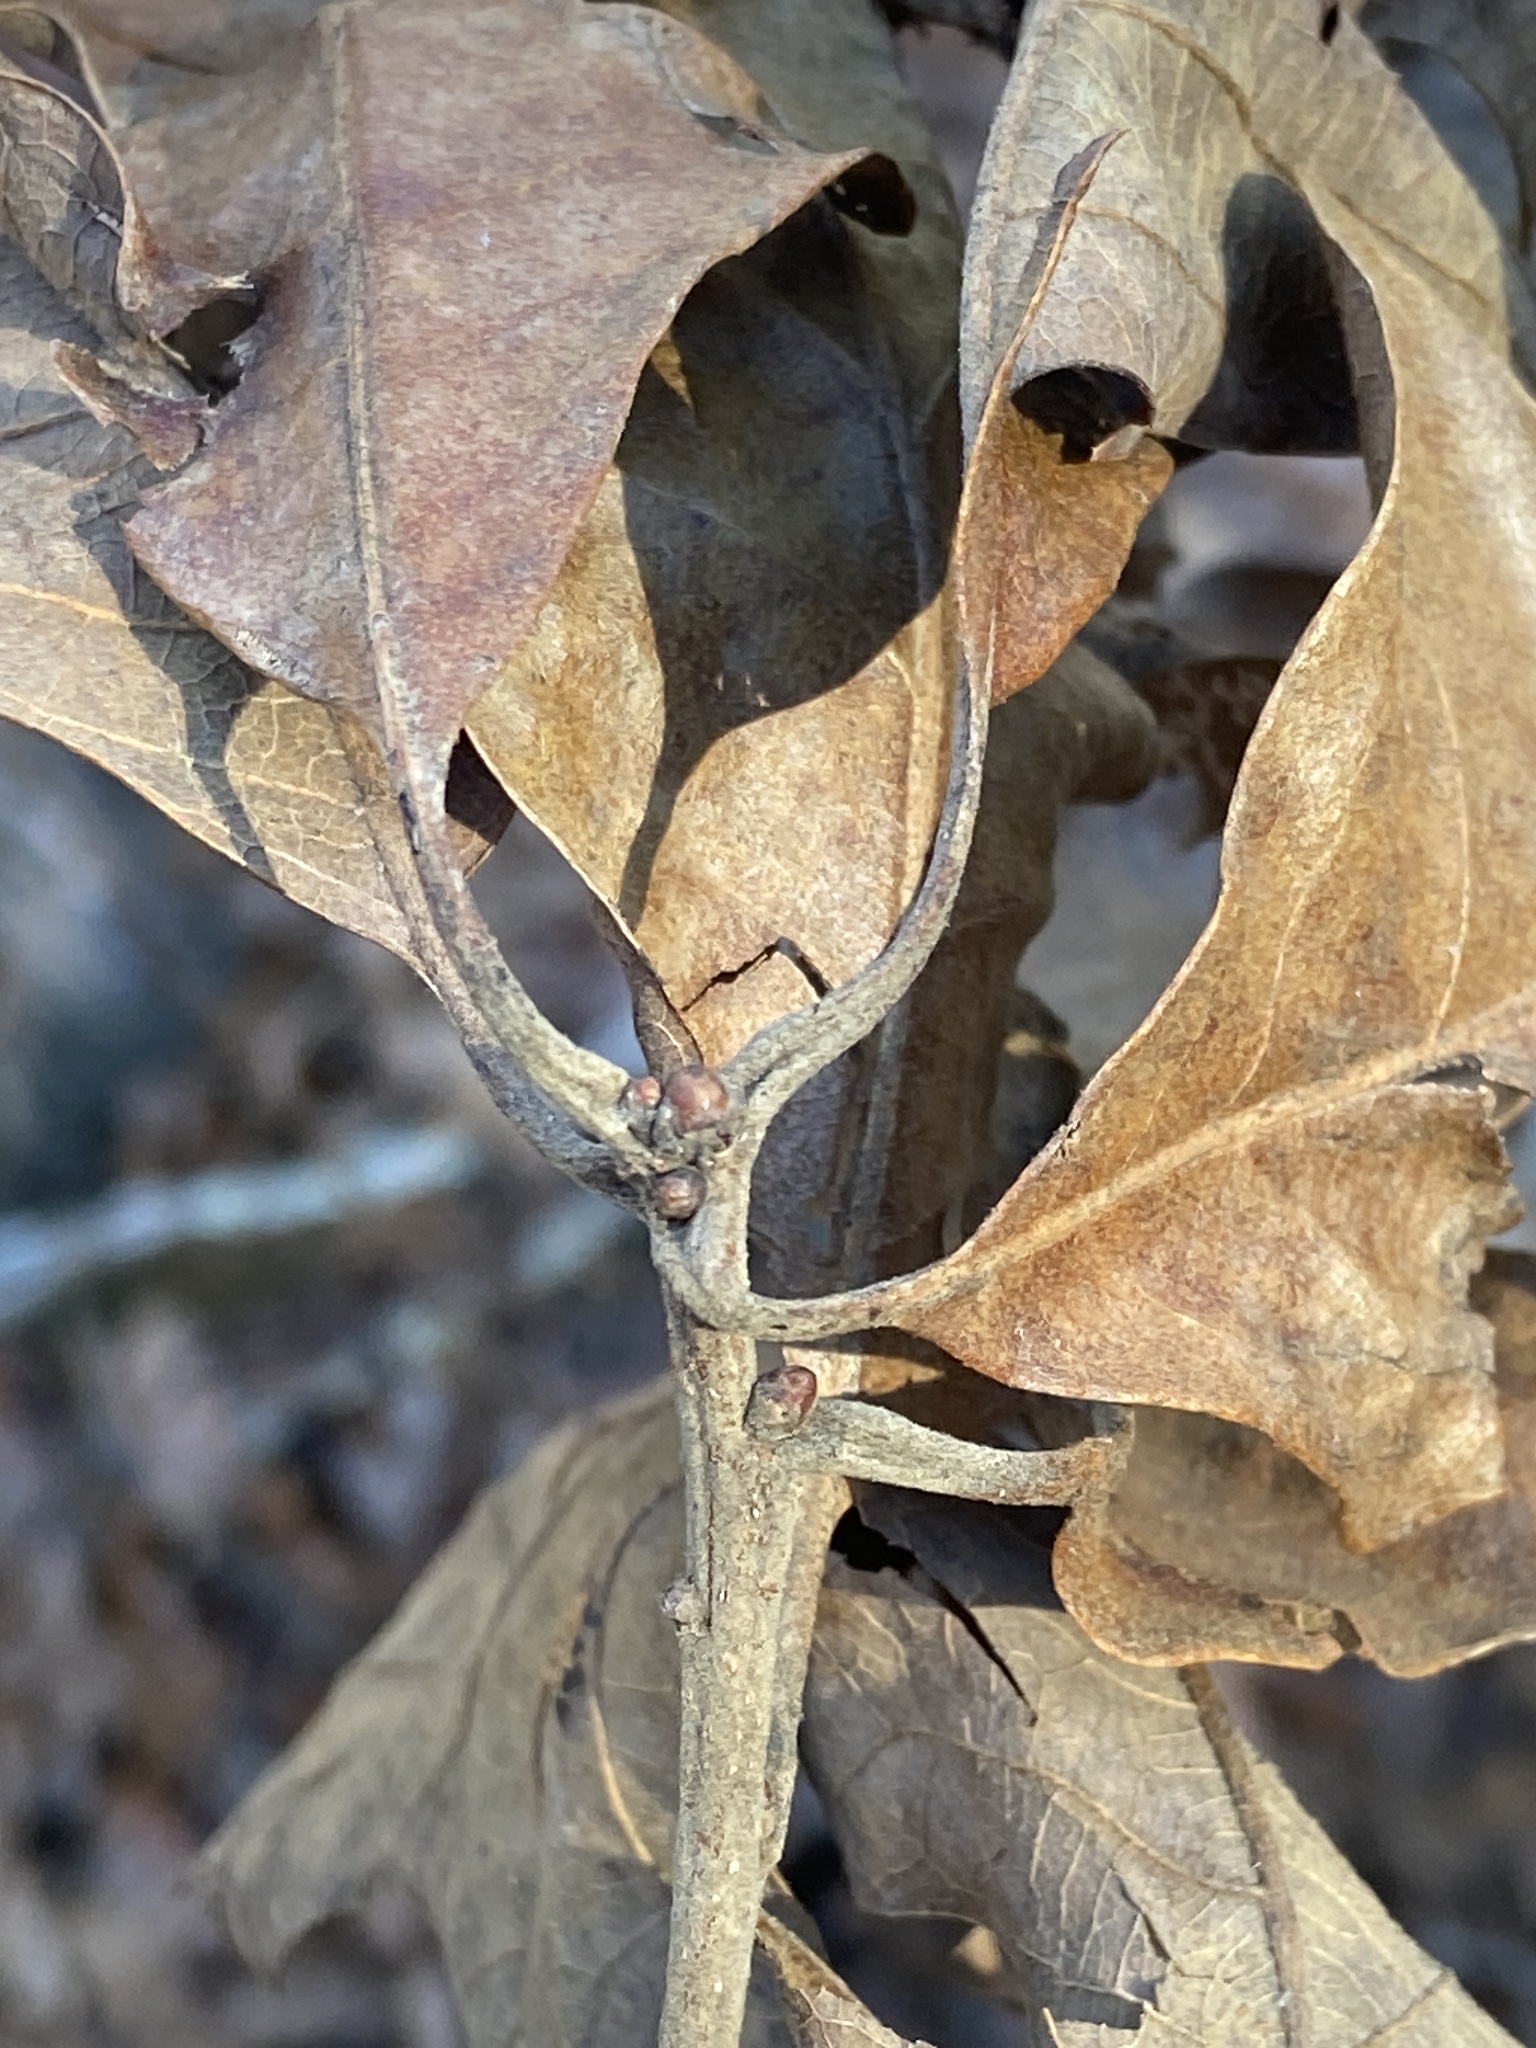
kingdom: Plantae
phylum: Tracheophyta
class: Magnoliopsida
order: Fagales
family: Fagaceae
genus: Quercus
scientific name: Quercus stellata
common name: Post oak
